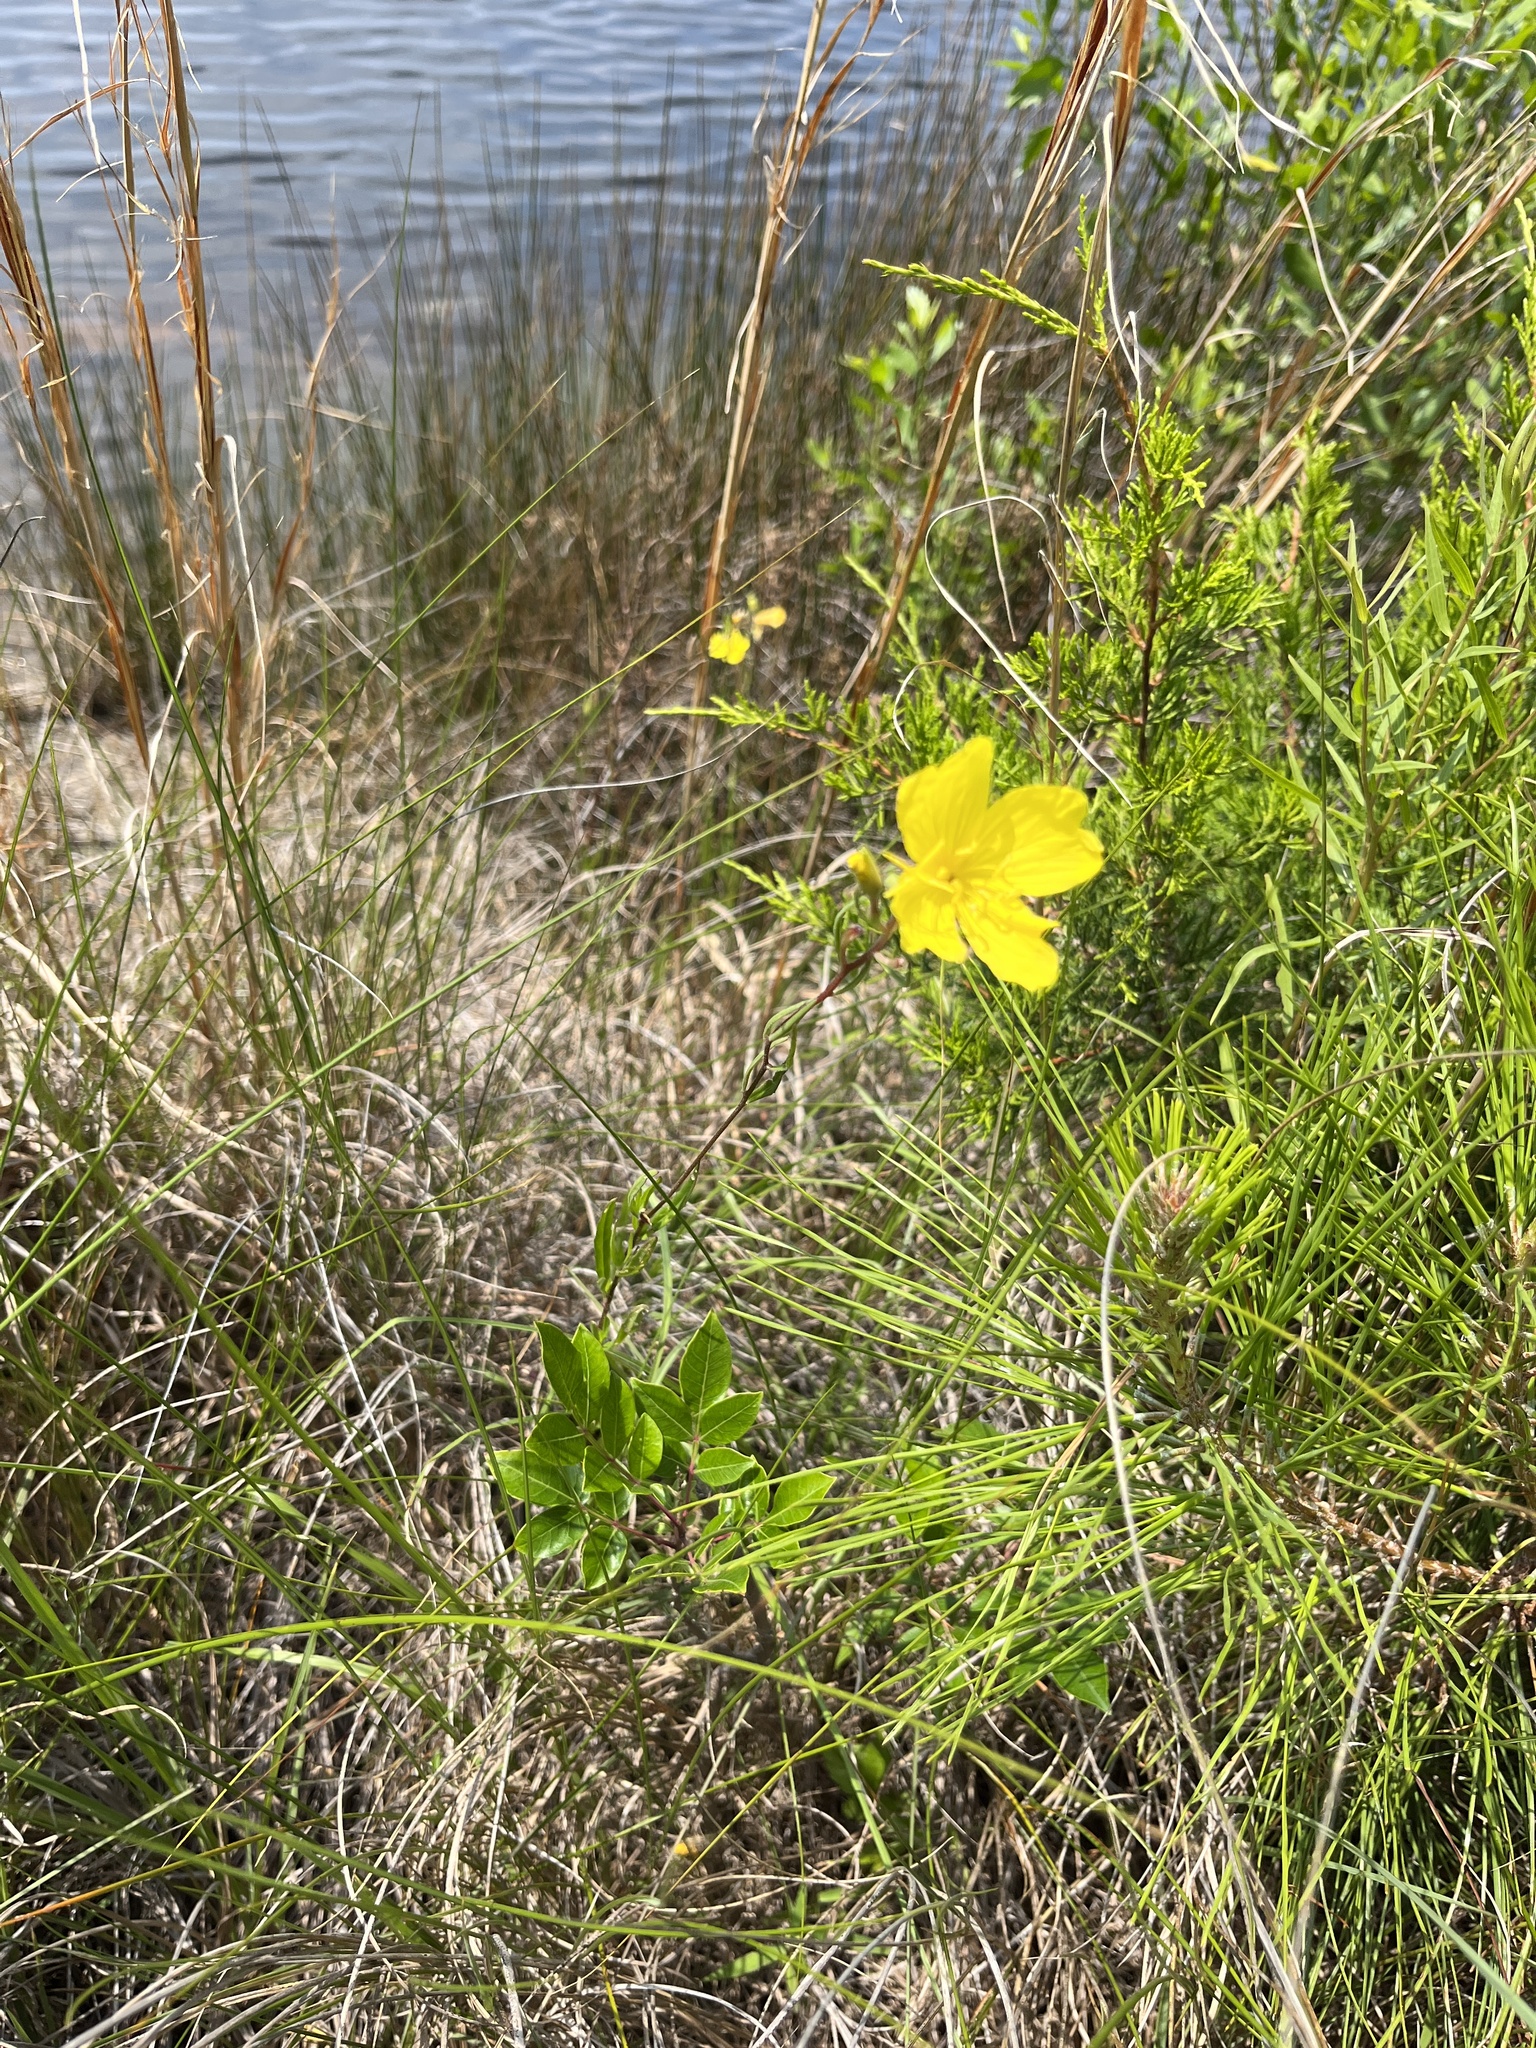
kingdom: Plantae
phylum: Tracheophyta
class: Magnoliopsida
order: Myrtales
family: Onagraceae
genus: Oenothera
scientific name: Oenothera fruticosa
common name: Southern sundrops
